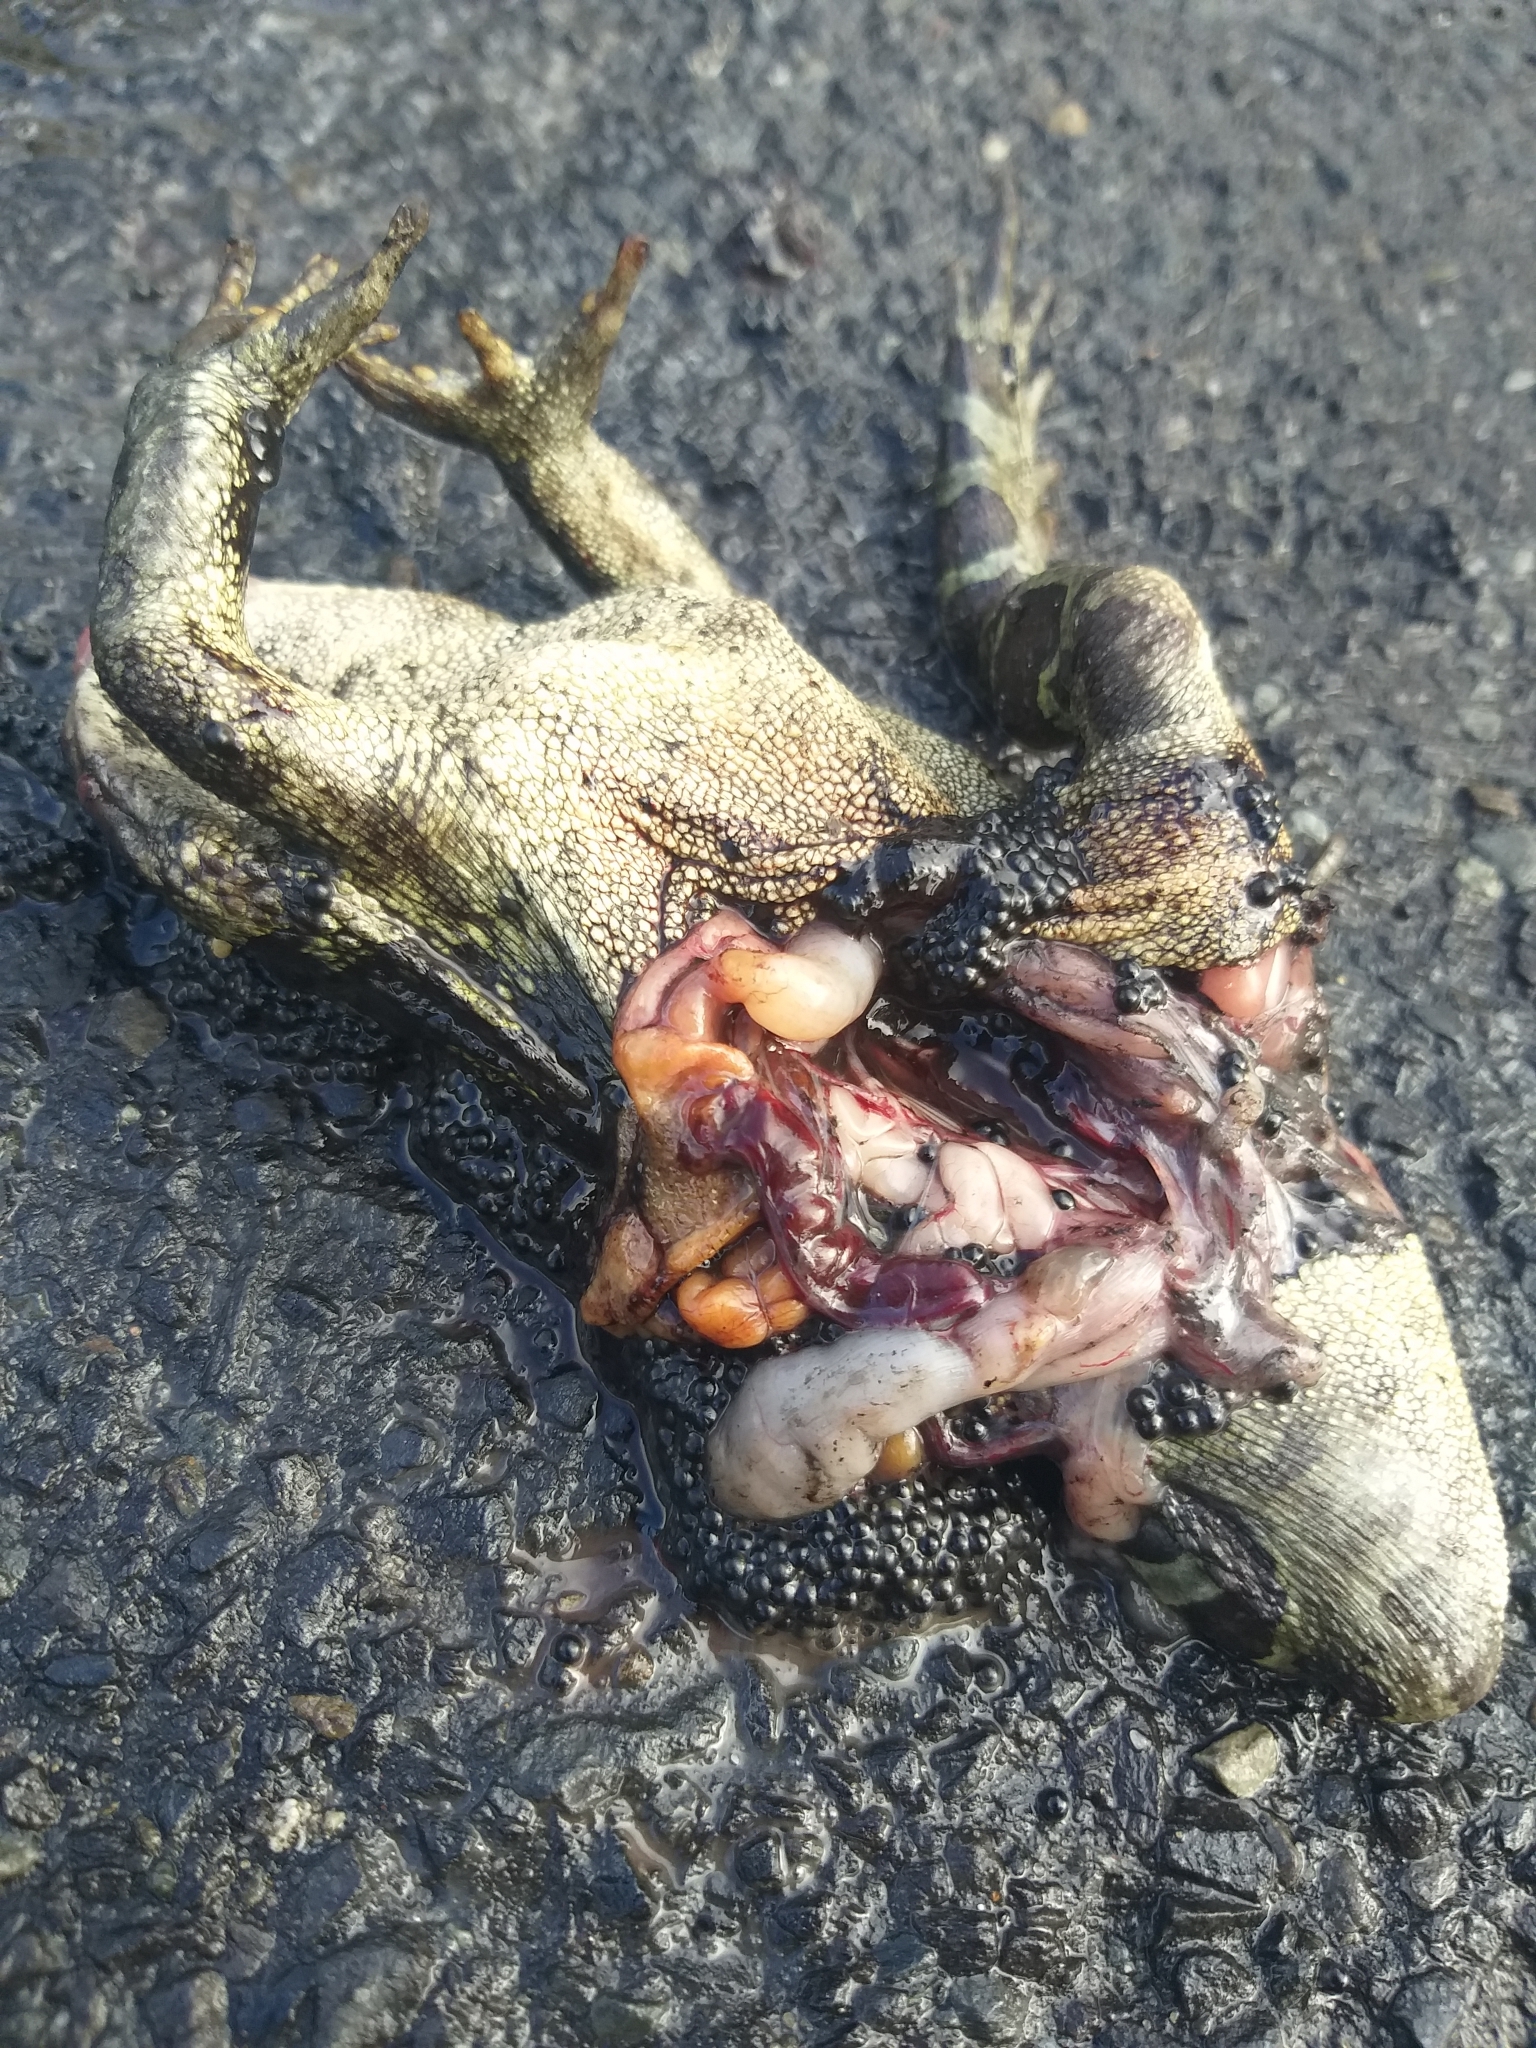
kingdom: Animalia
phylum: Chordata
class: Amphibia
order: Anura
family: Bufonidae
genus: Sclerophrys
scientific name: Sclerophrys pantherina
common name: Panther toad
